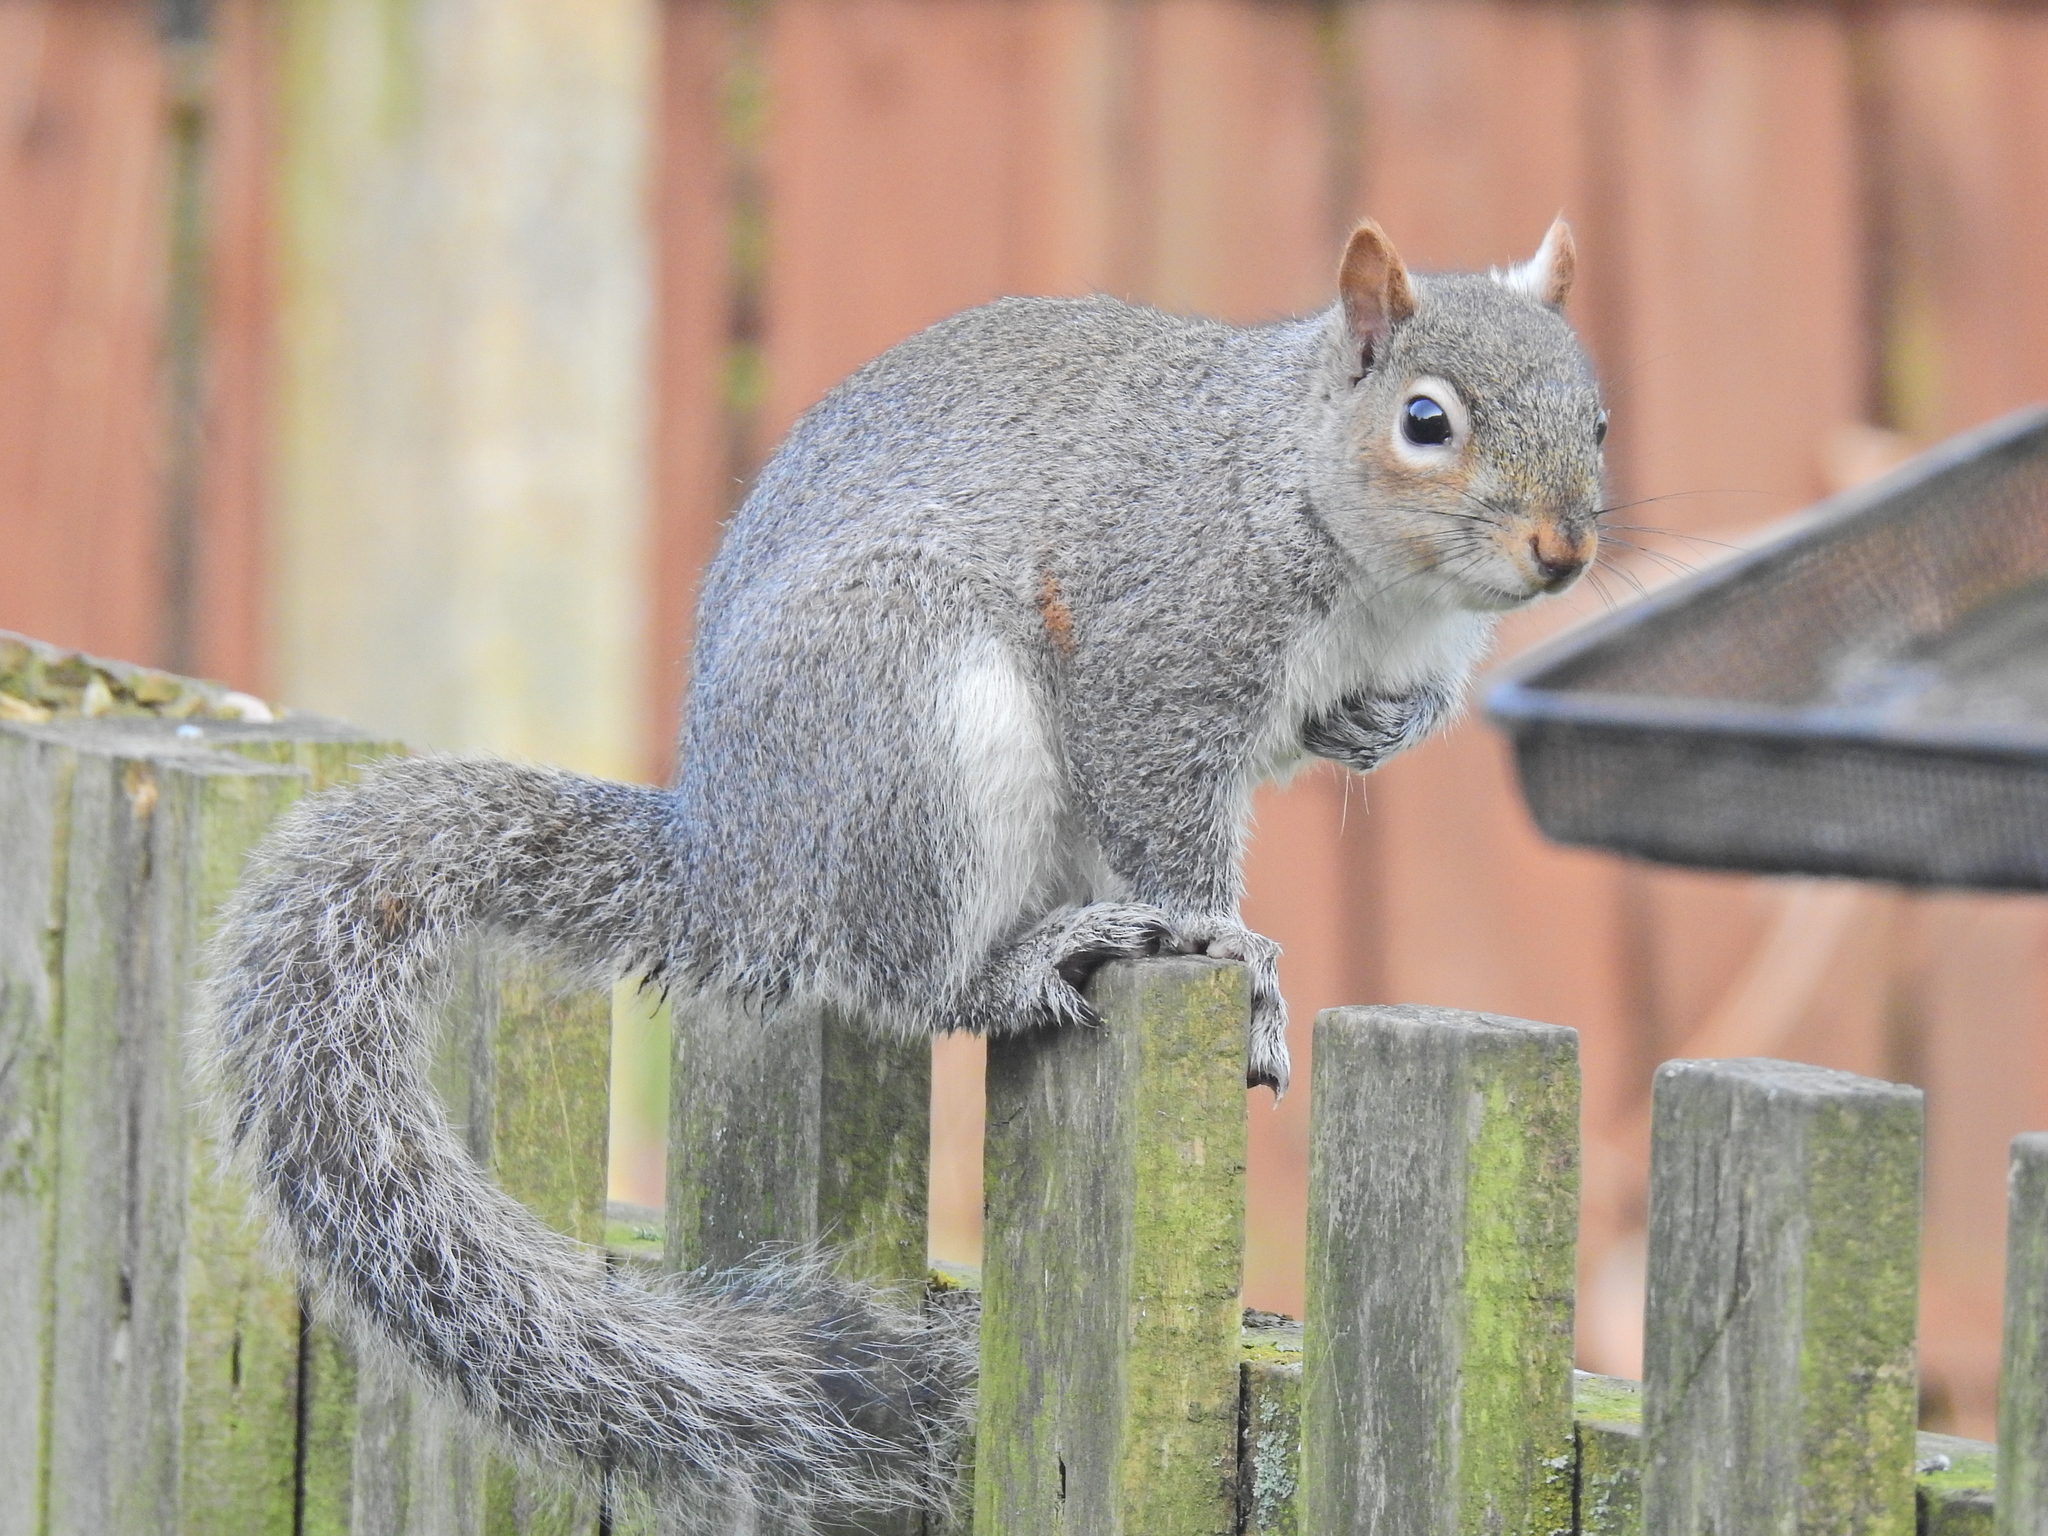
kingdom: Animalia
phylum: Chordata
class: Mammalia
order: Rodentia
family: Sciuridae
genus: Sciurus
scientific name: Sciurus carolinensis
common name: Eastern gray squirrel
